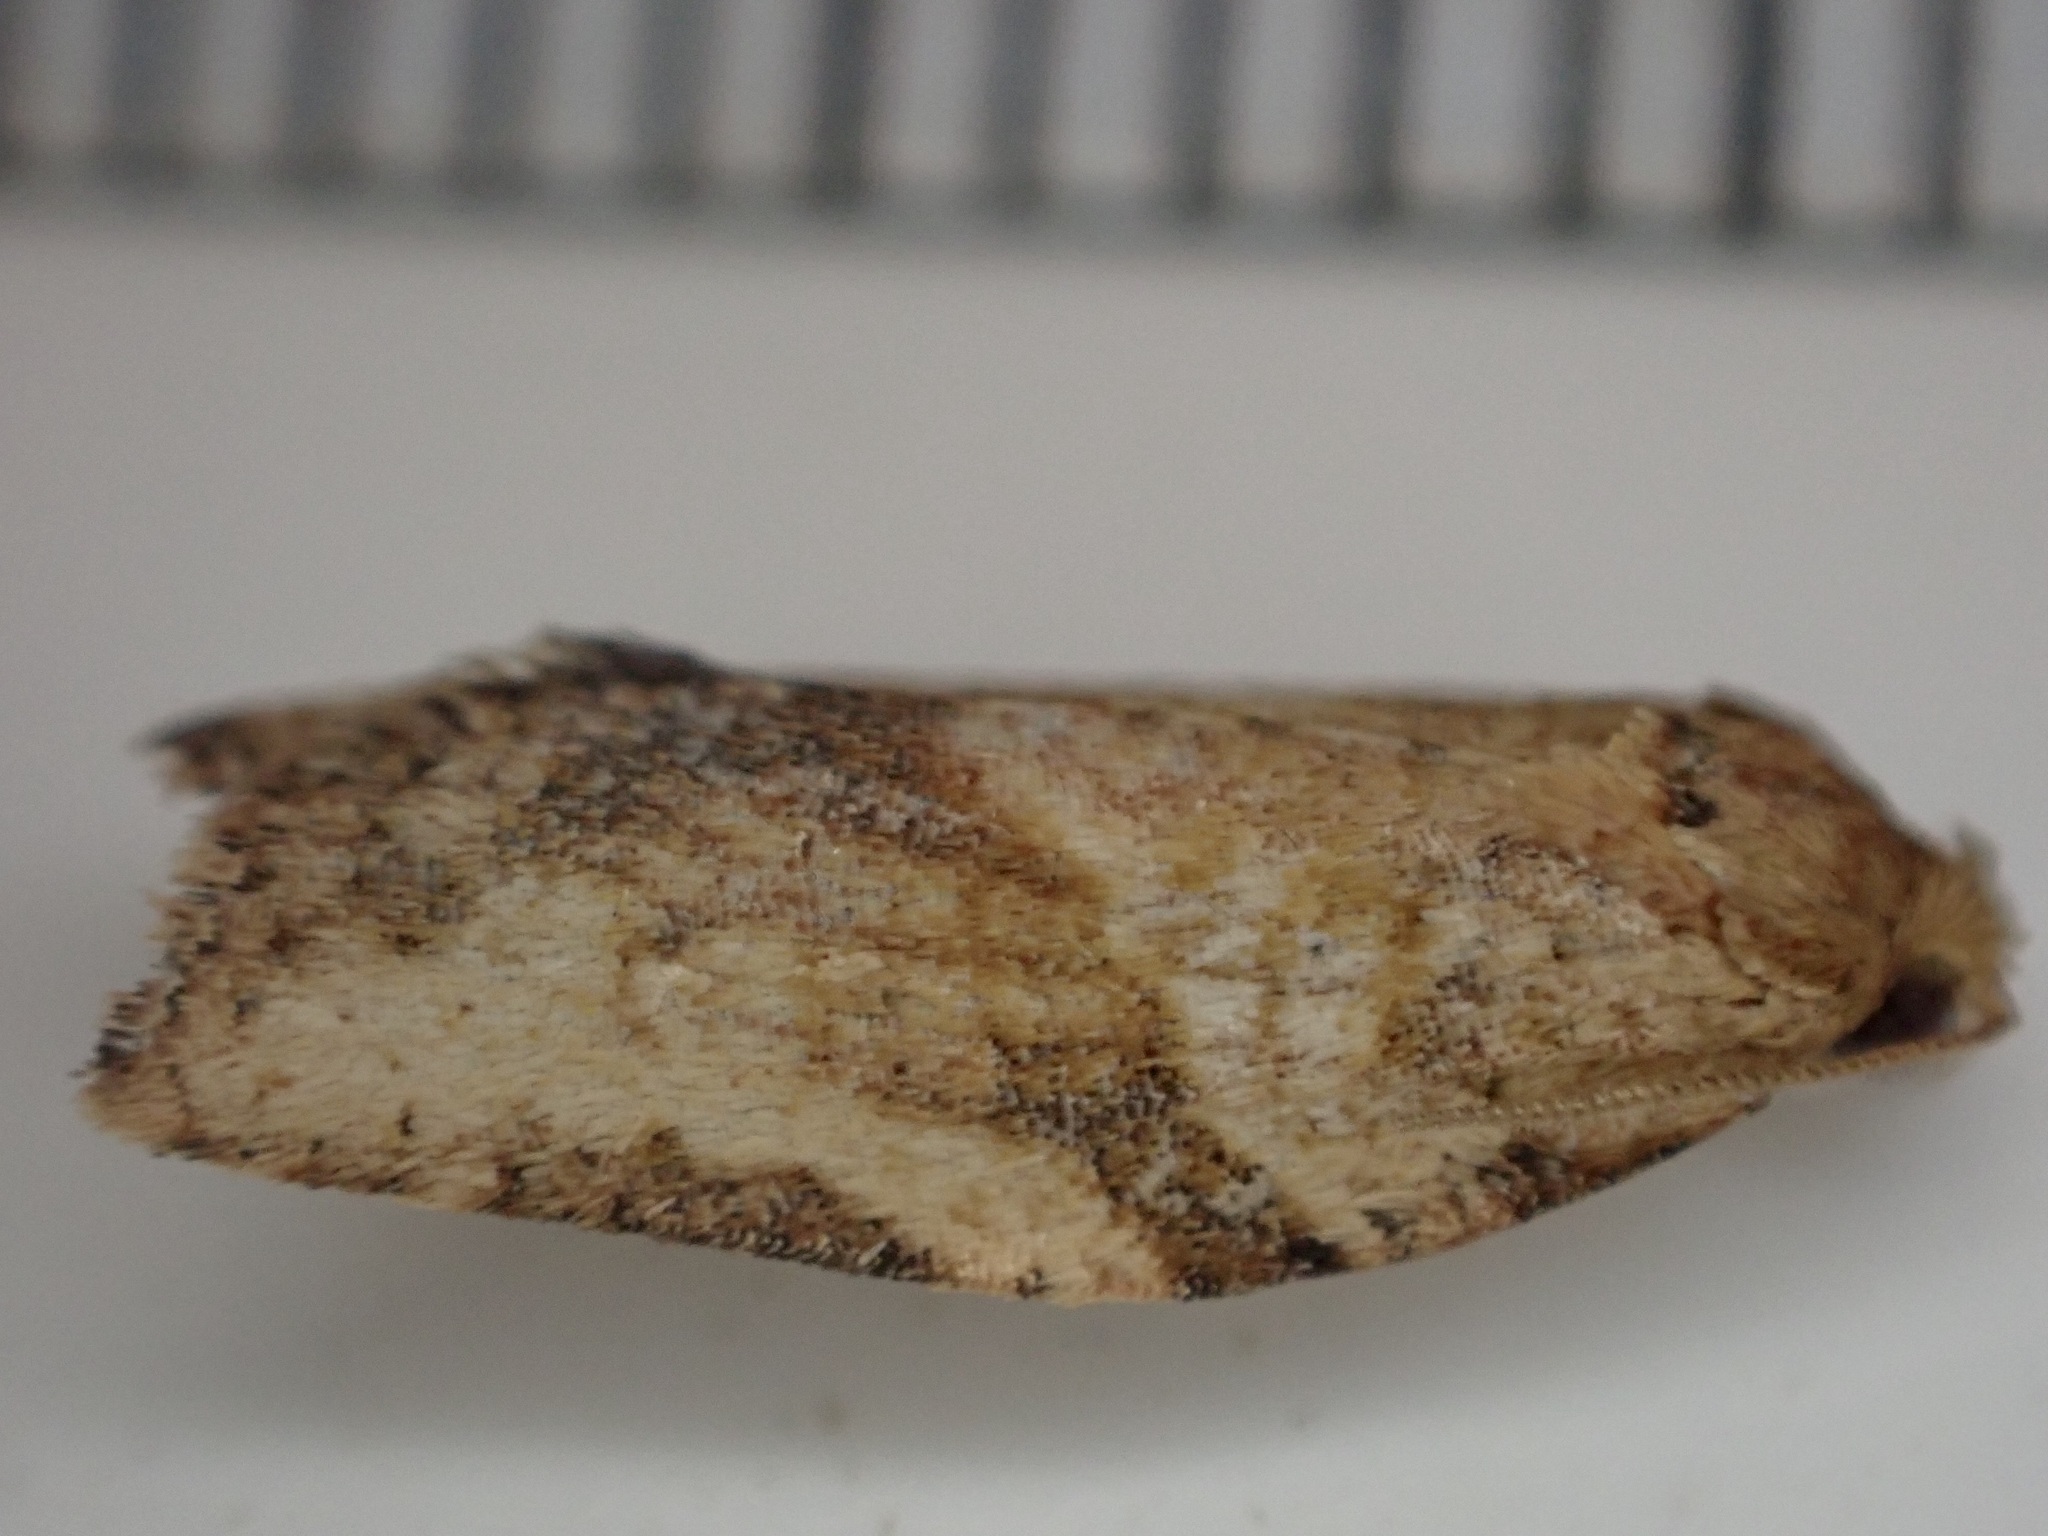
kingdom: Animalia
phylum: Arthropoda
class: Insecta
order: Lepidoptera
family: Tortricidae
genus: Epiphyas
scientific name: Epiphyas postvittana
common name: Light brown apple moth
